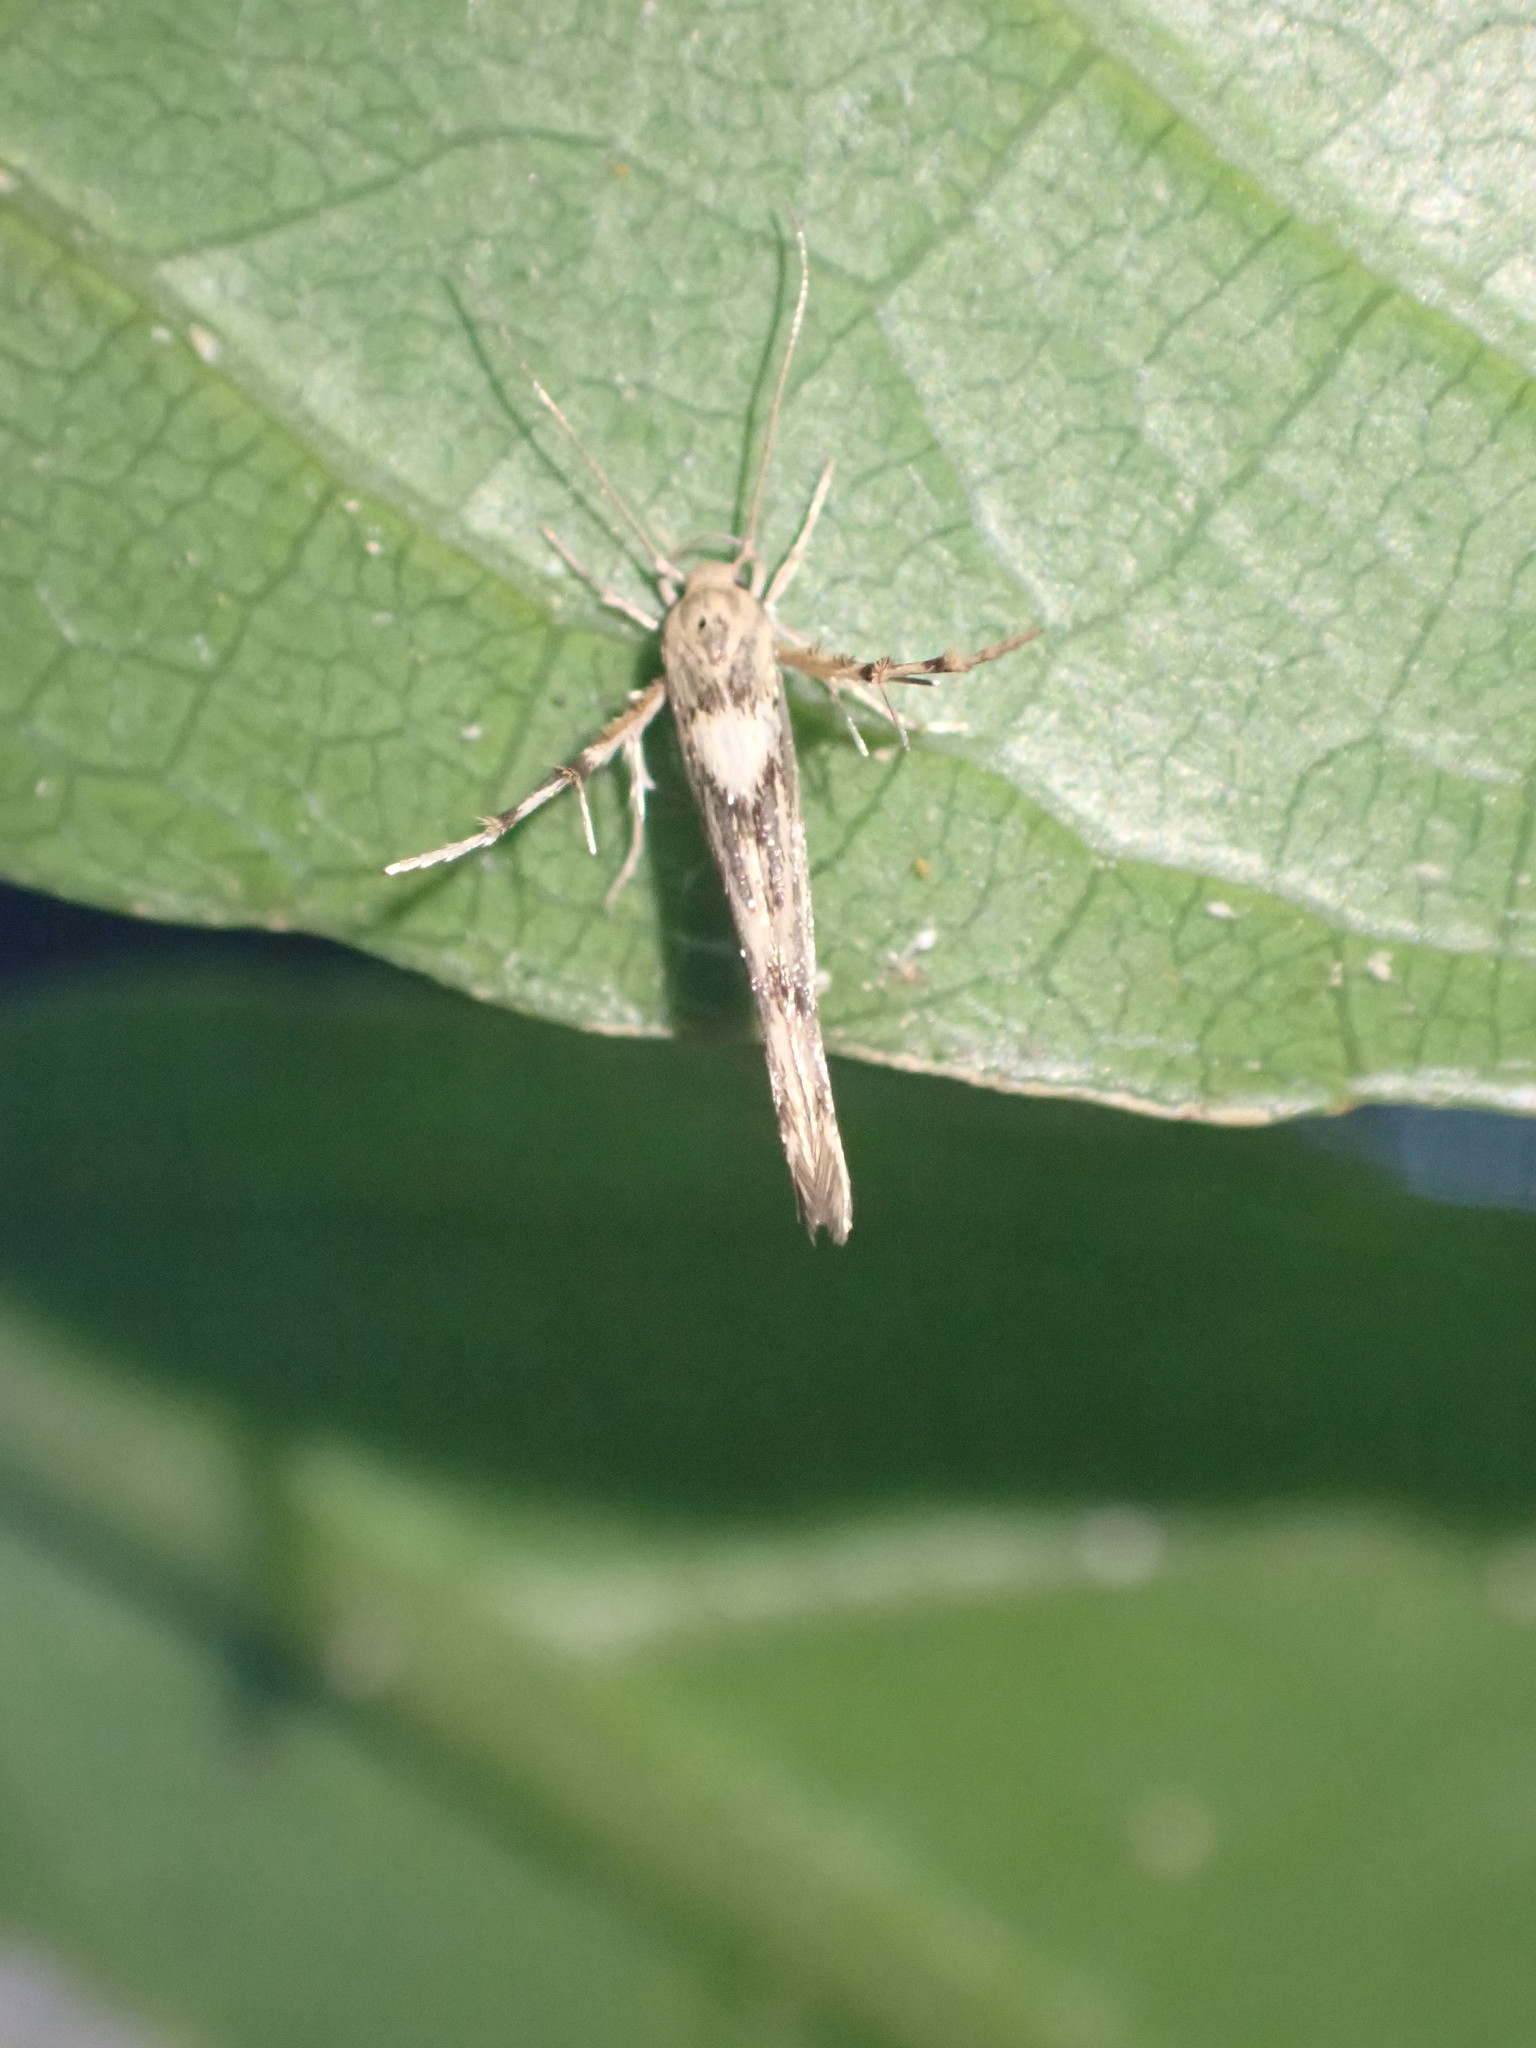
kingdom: Animalia
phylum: Arthropoda
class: Insecta
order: Lepidoptera
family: Stathmopodidae
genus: Stathmopoda
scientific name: Stathmopoda plumbiflua
